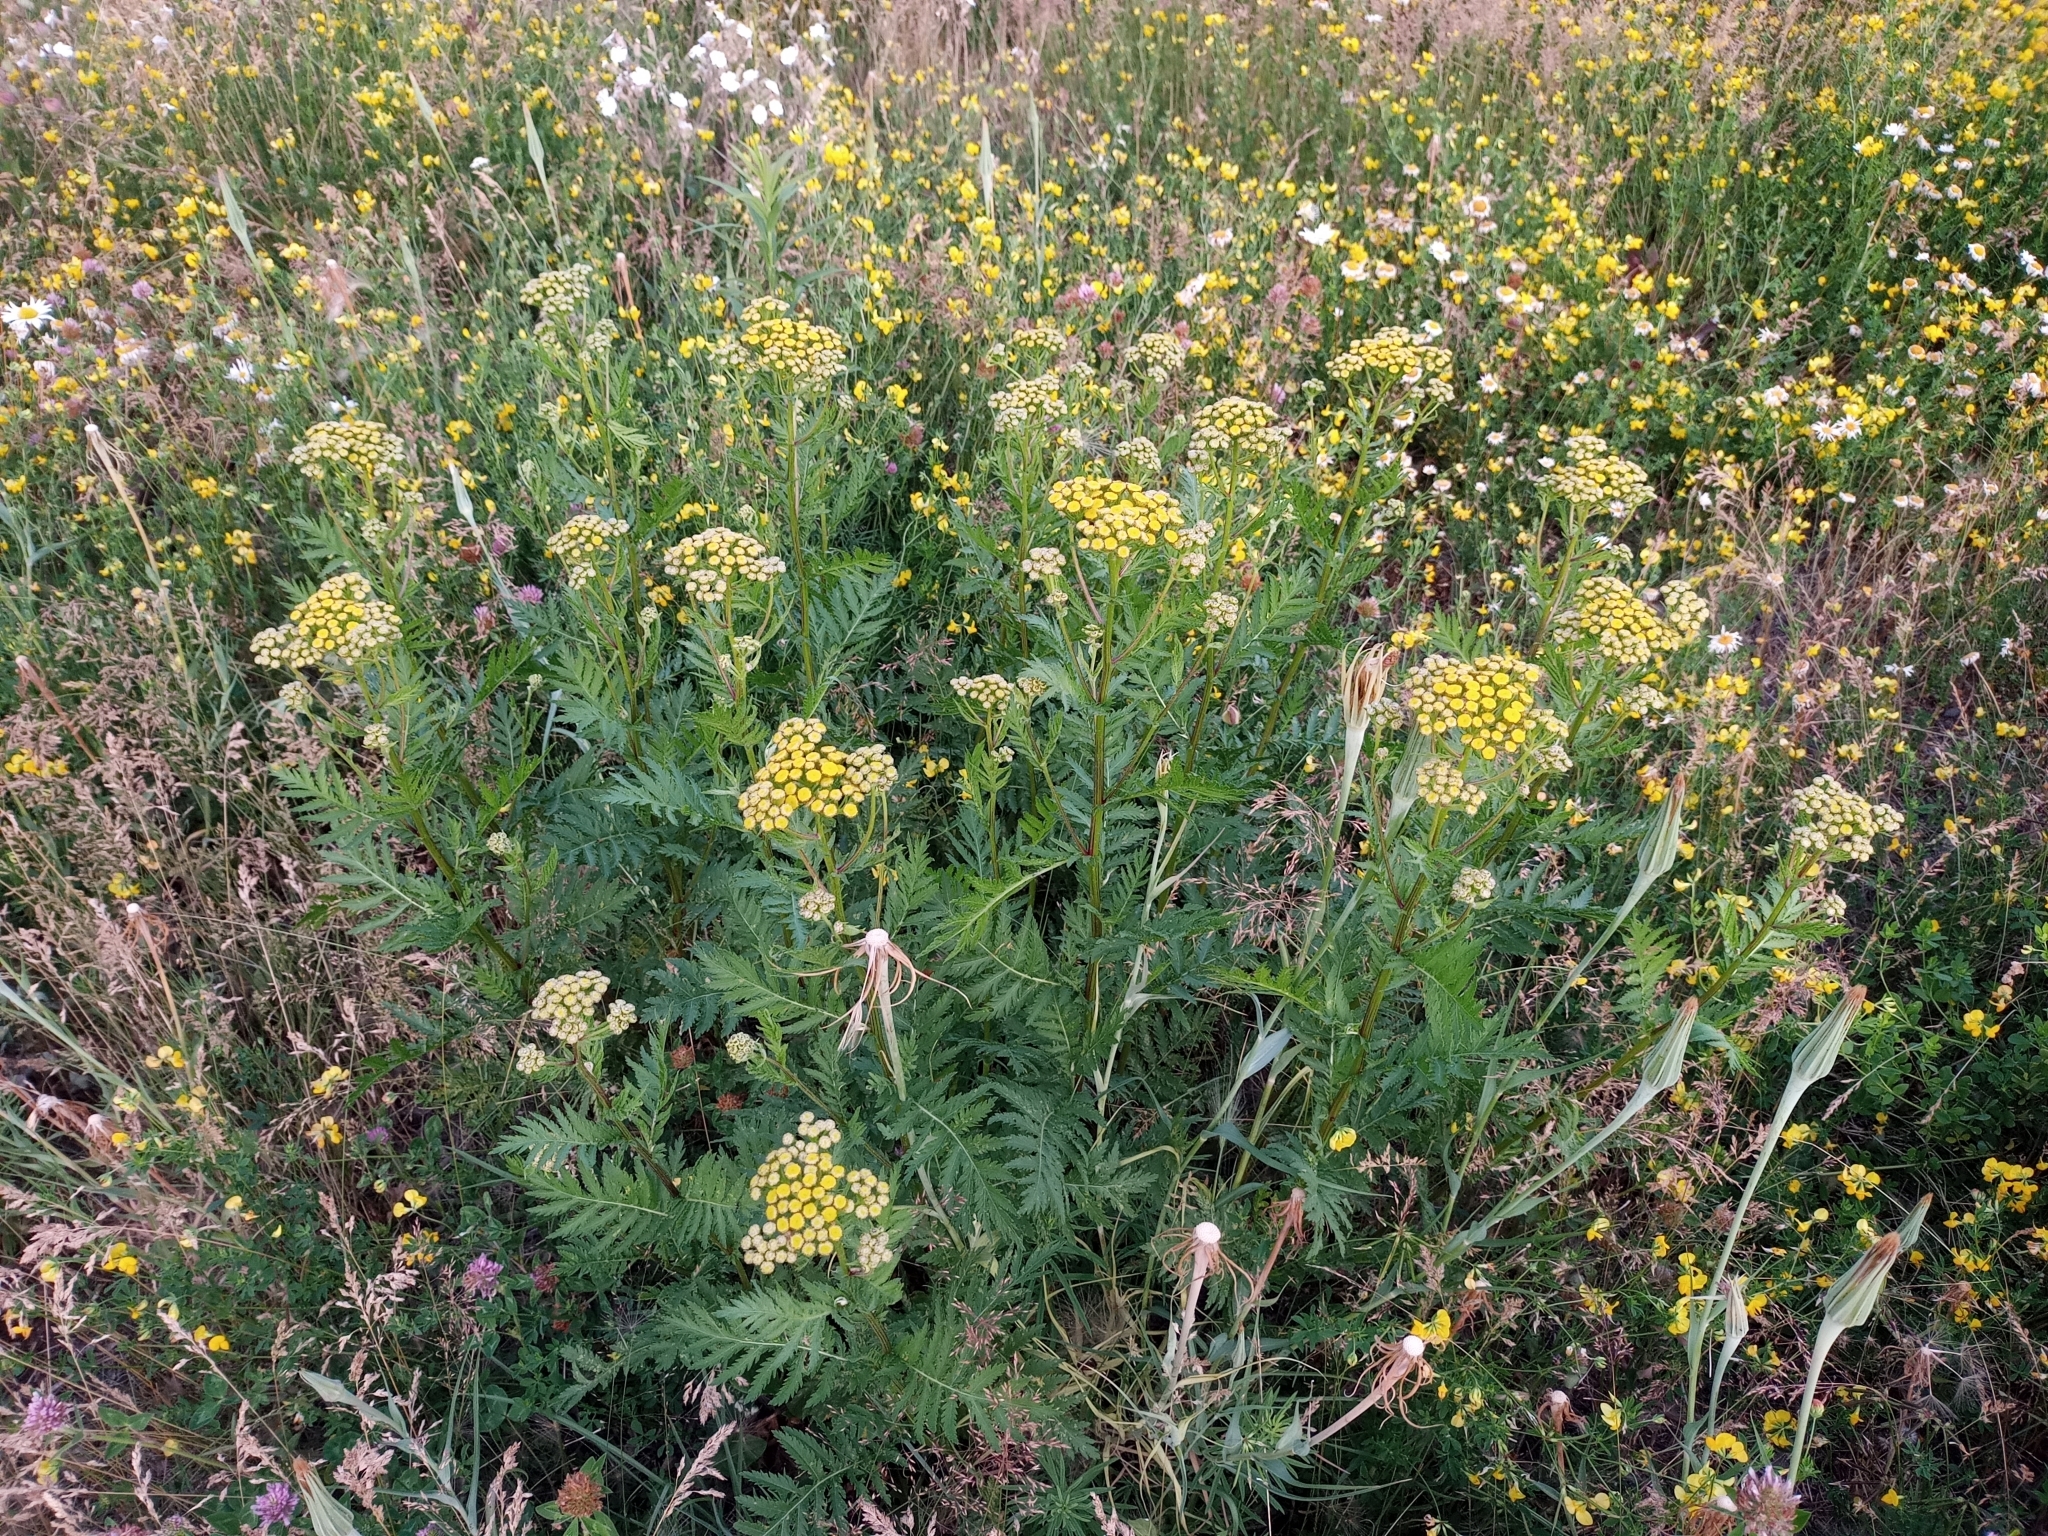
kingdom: Plantae
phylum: Tracheophyta
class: Magnoliopsida
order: Asterales
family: Asteraceae
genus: Tanacetum
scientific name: Tanacetum vulgare
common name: Common tansy
